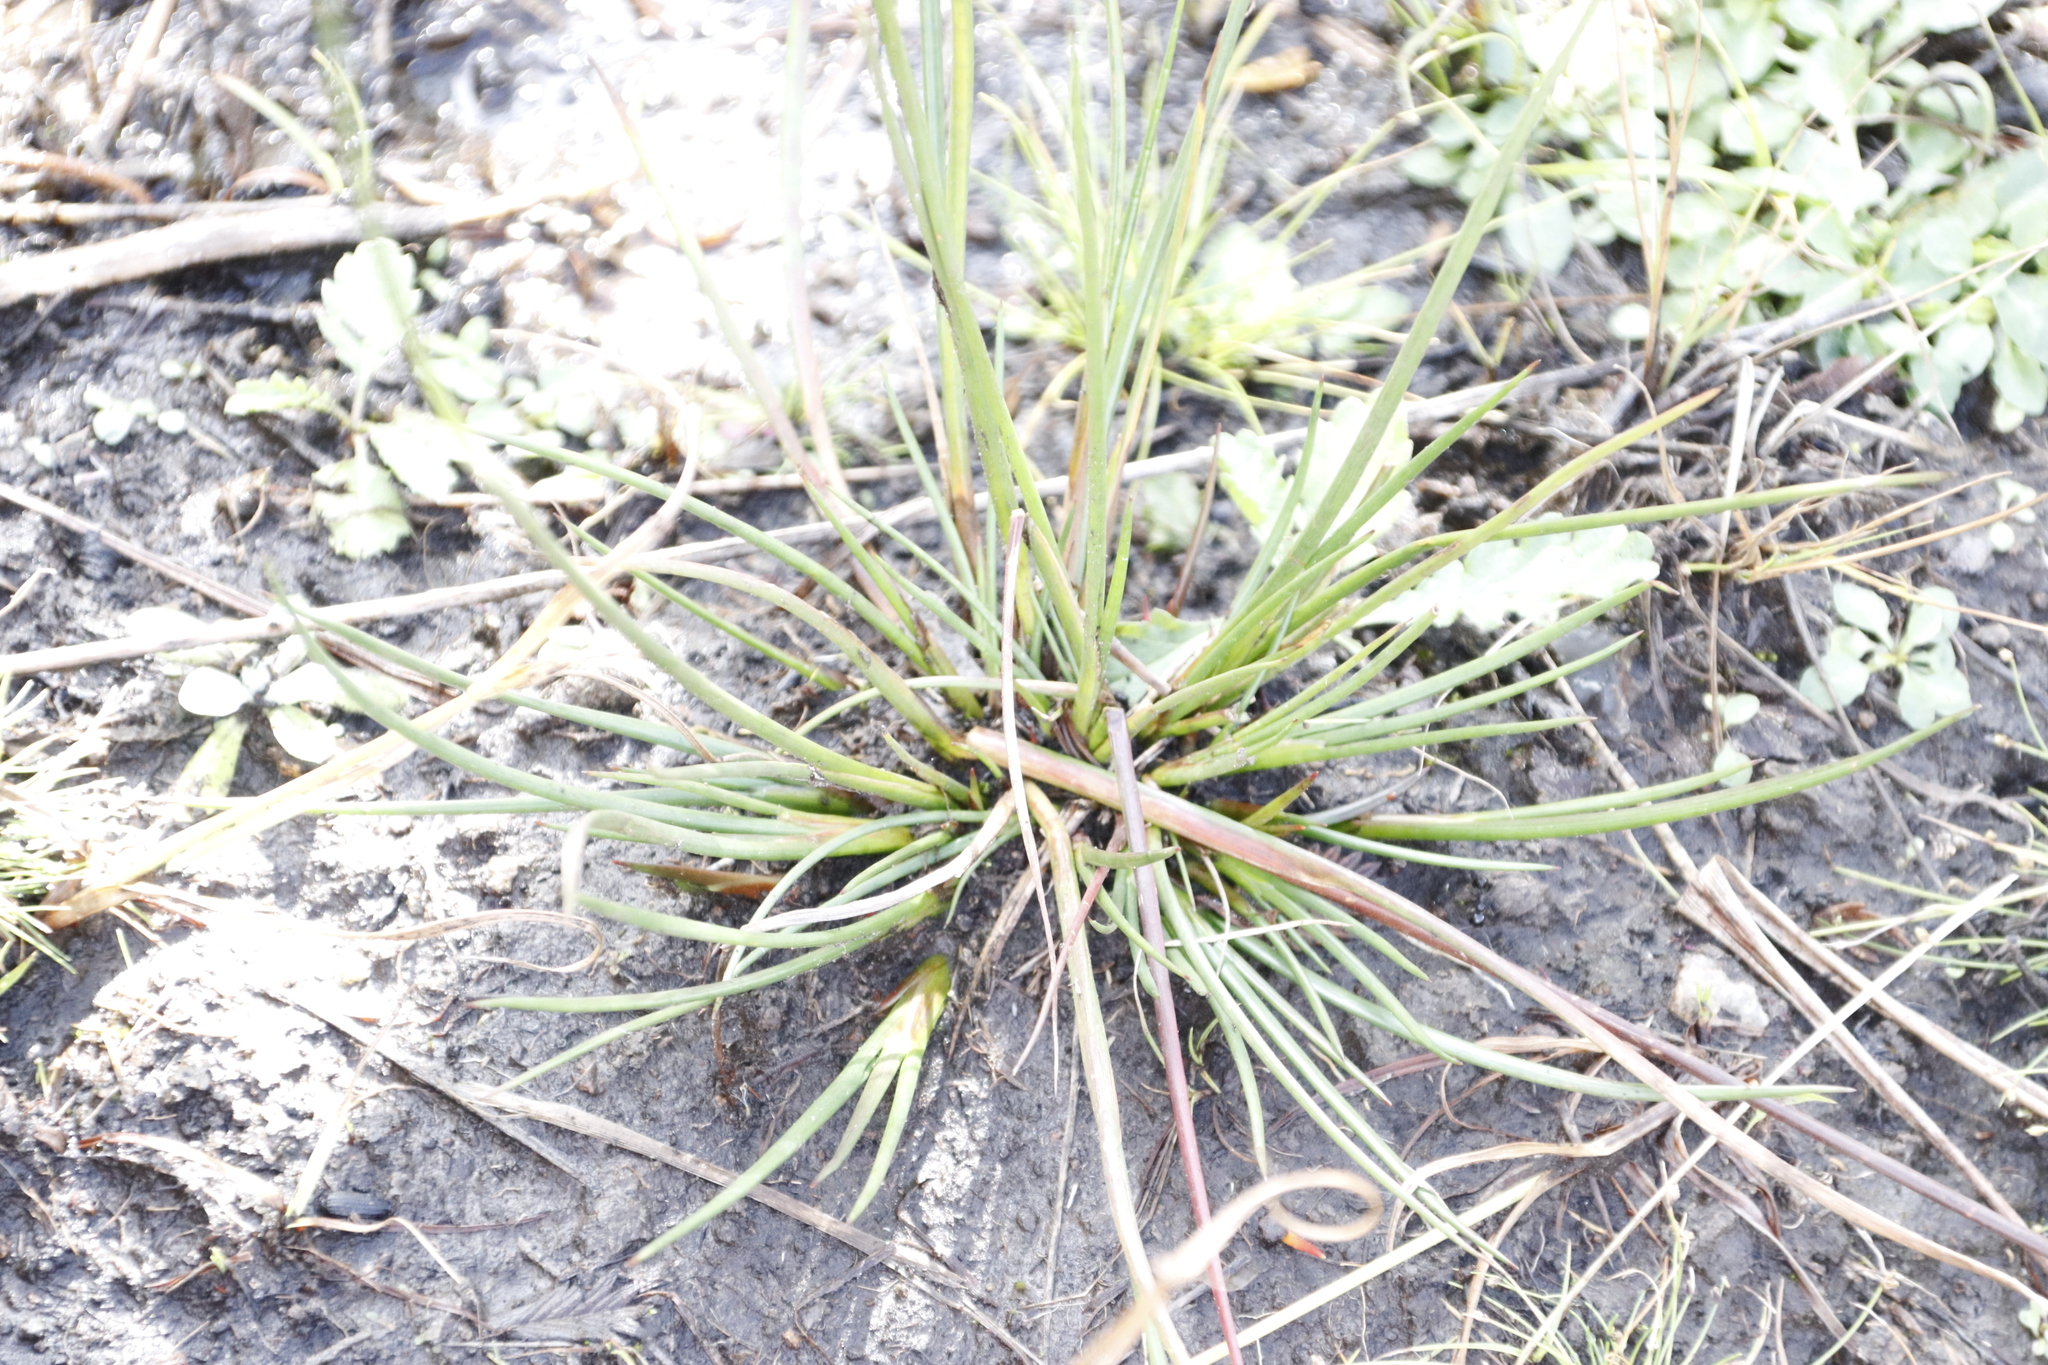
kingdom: Plantae
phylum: Tracheophyta
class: Liliopsida
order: Poales
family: Juncaceae
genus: Juncus
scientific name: Juncus oxycarpus
